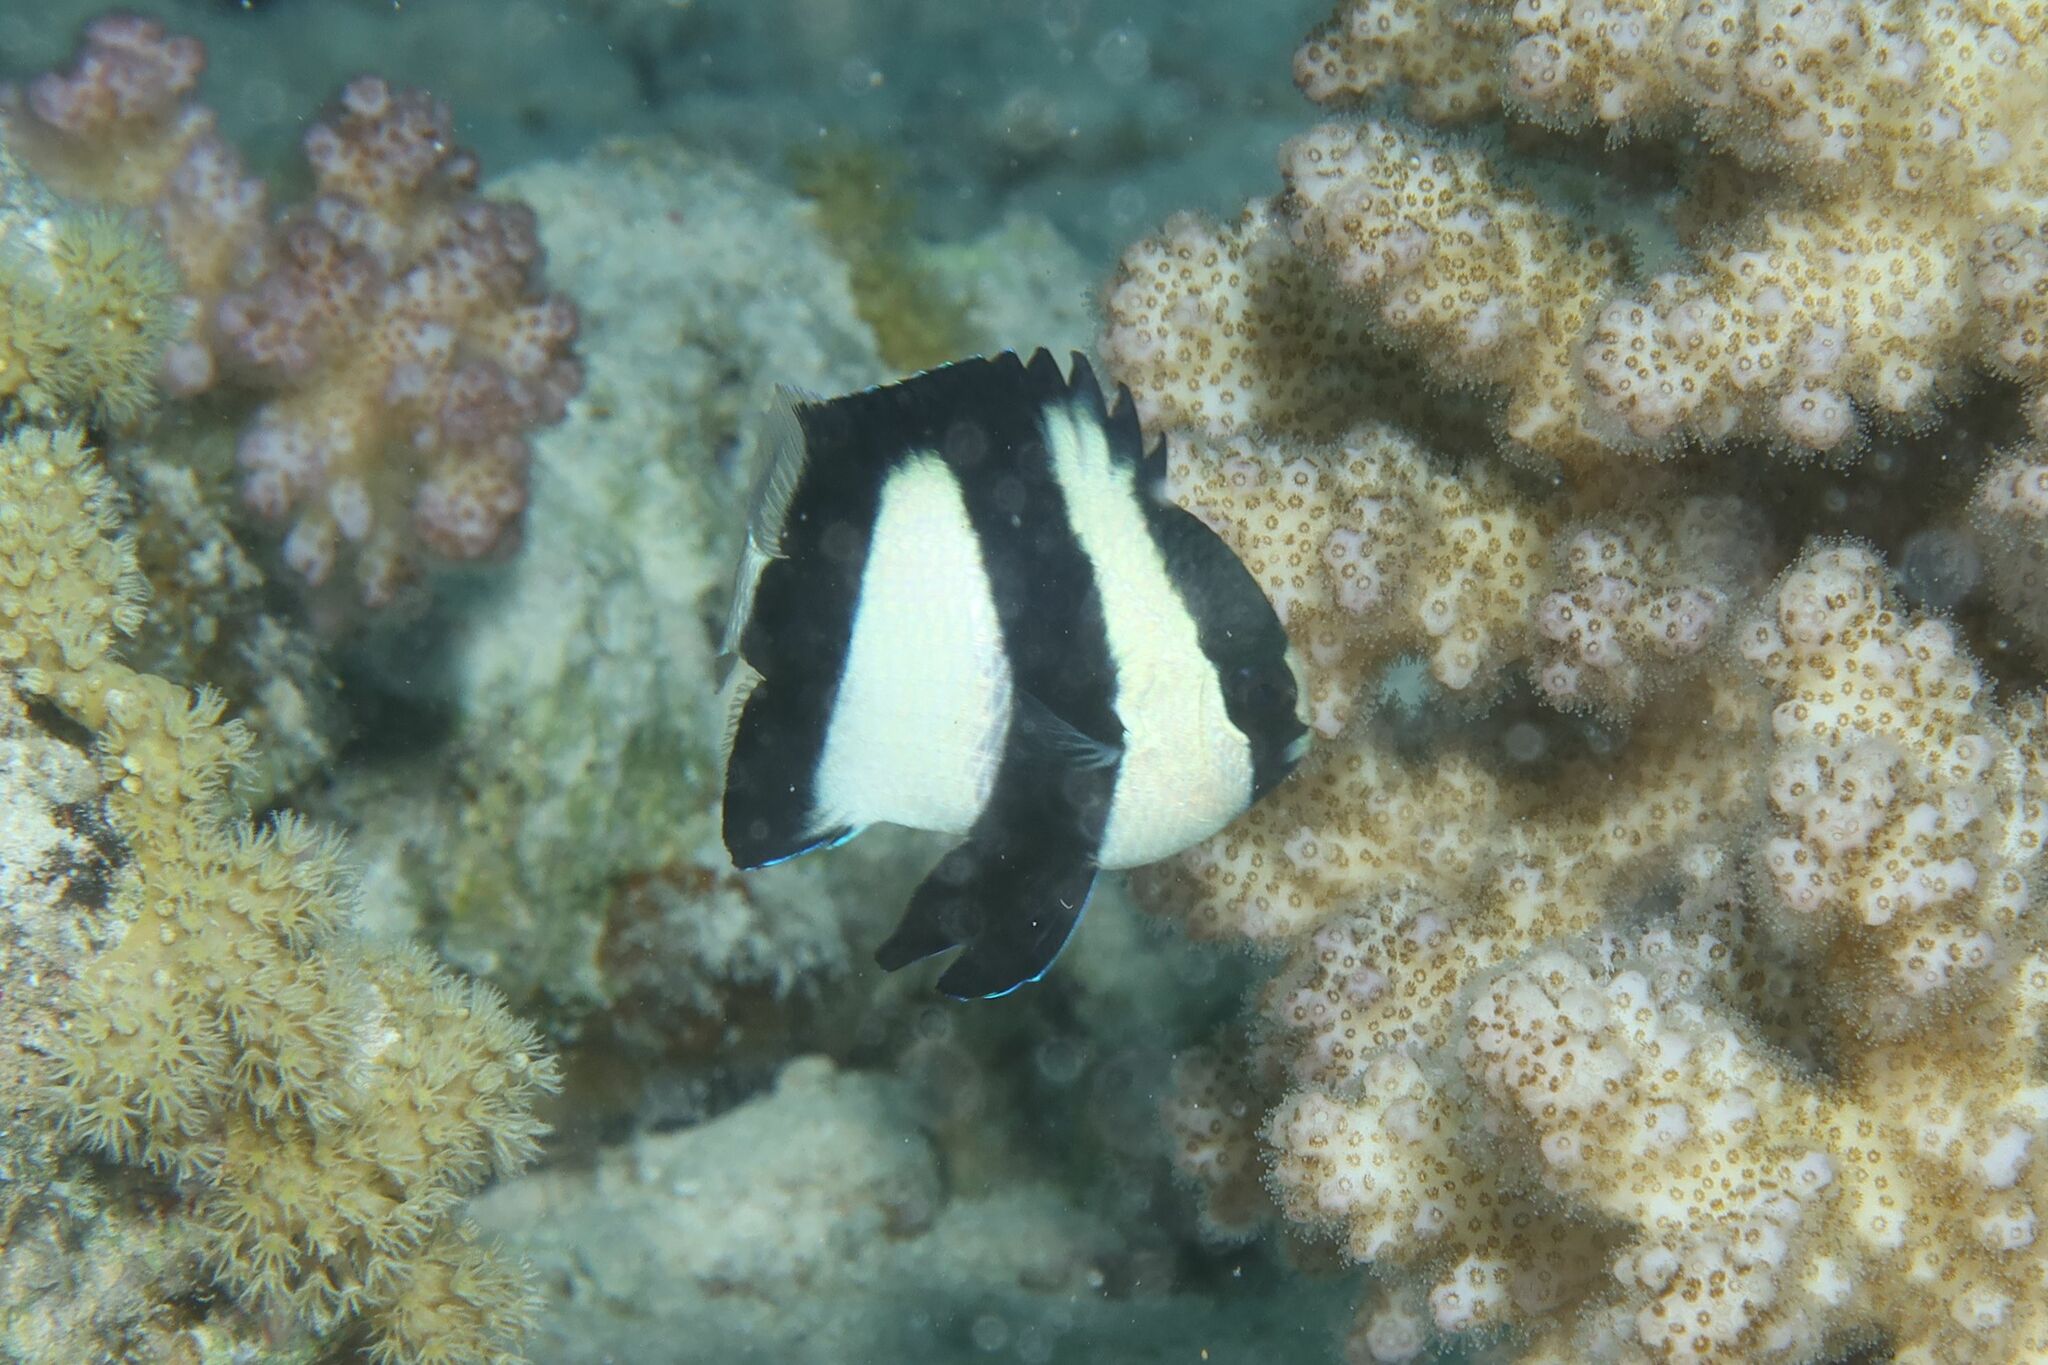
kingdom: Animalia
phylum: Chordata
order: Perciformes
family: Pomacentridae
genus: Dascyllus
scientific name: Dascyllus abudafur
